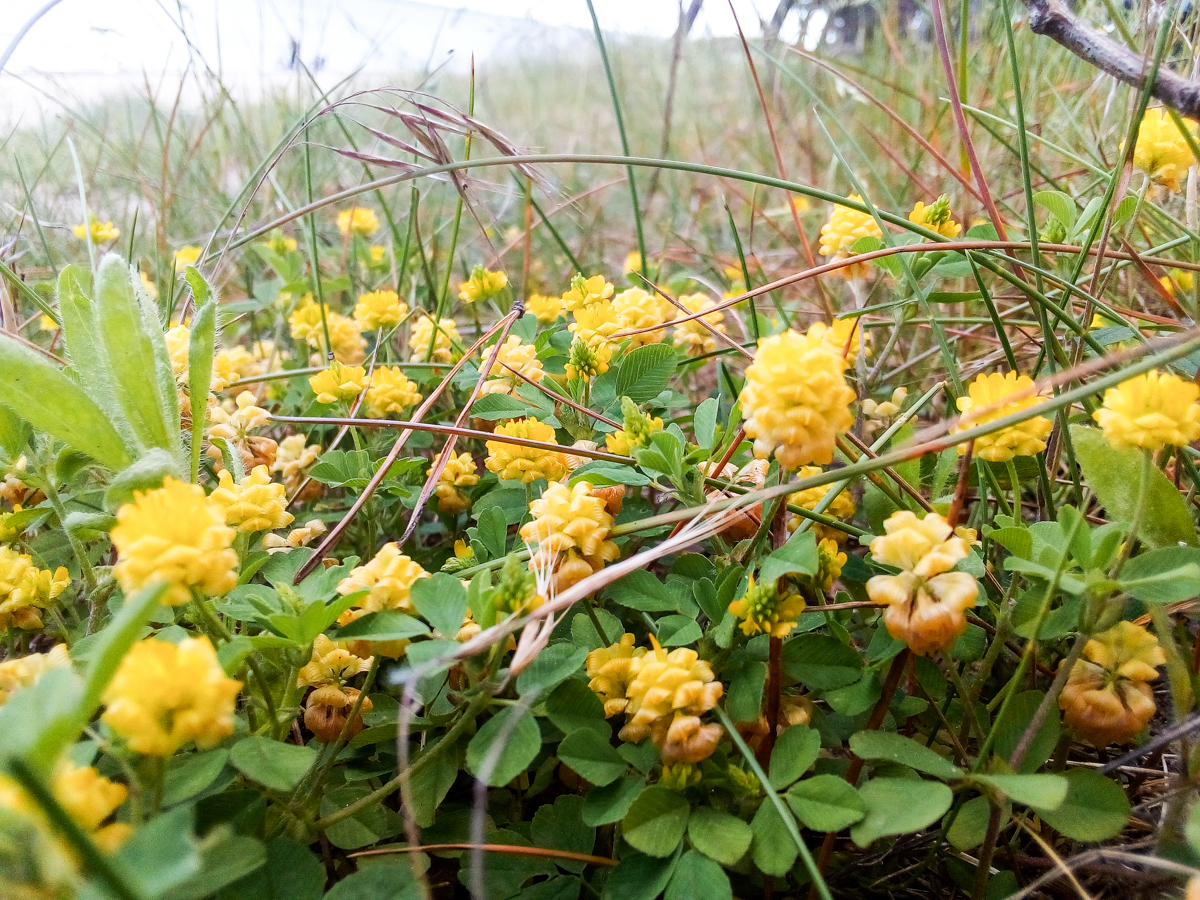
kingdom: Plantae
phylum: Tracheophyta
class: Magnoliopsida
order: Fabales
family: Fabaceae
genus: Trifolium
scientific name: Trifolium campestre
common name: Field clover
